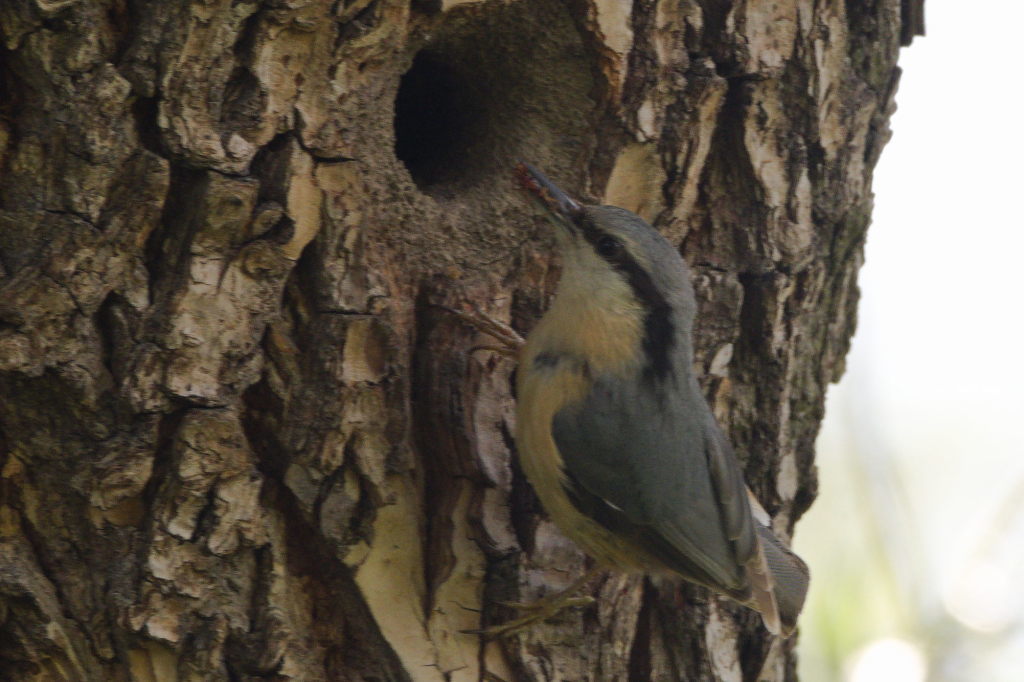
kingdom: Animalia
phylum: Chordata
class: Aves
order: Passeriformes
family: Sittidae
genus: Sitta
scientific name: Sitta europaea
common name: Eurasian nuthatch
